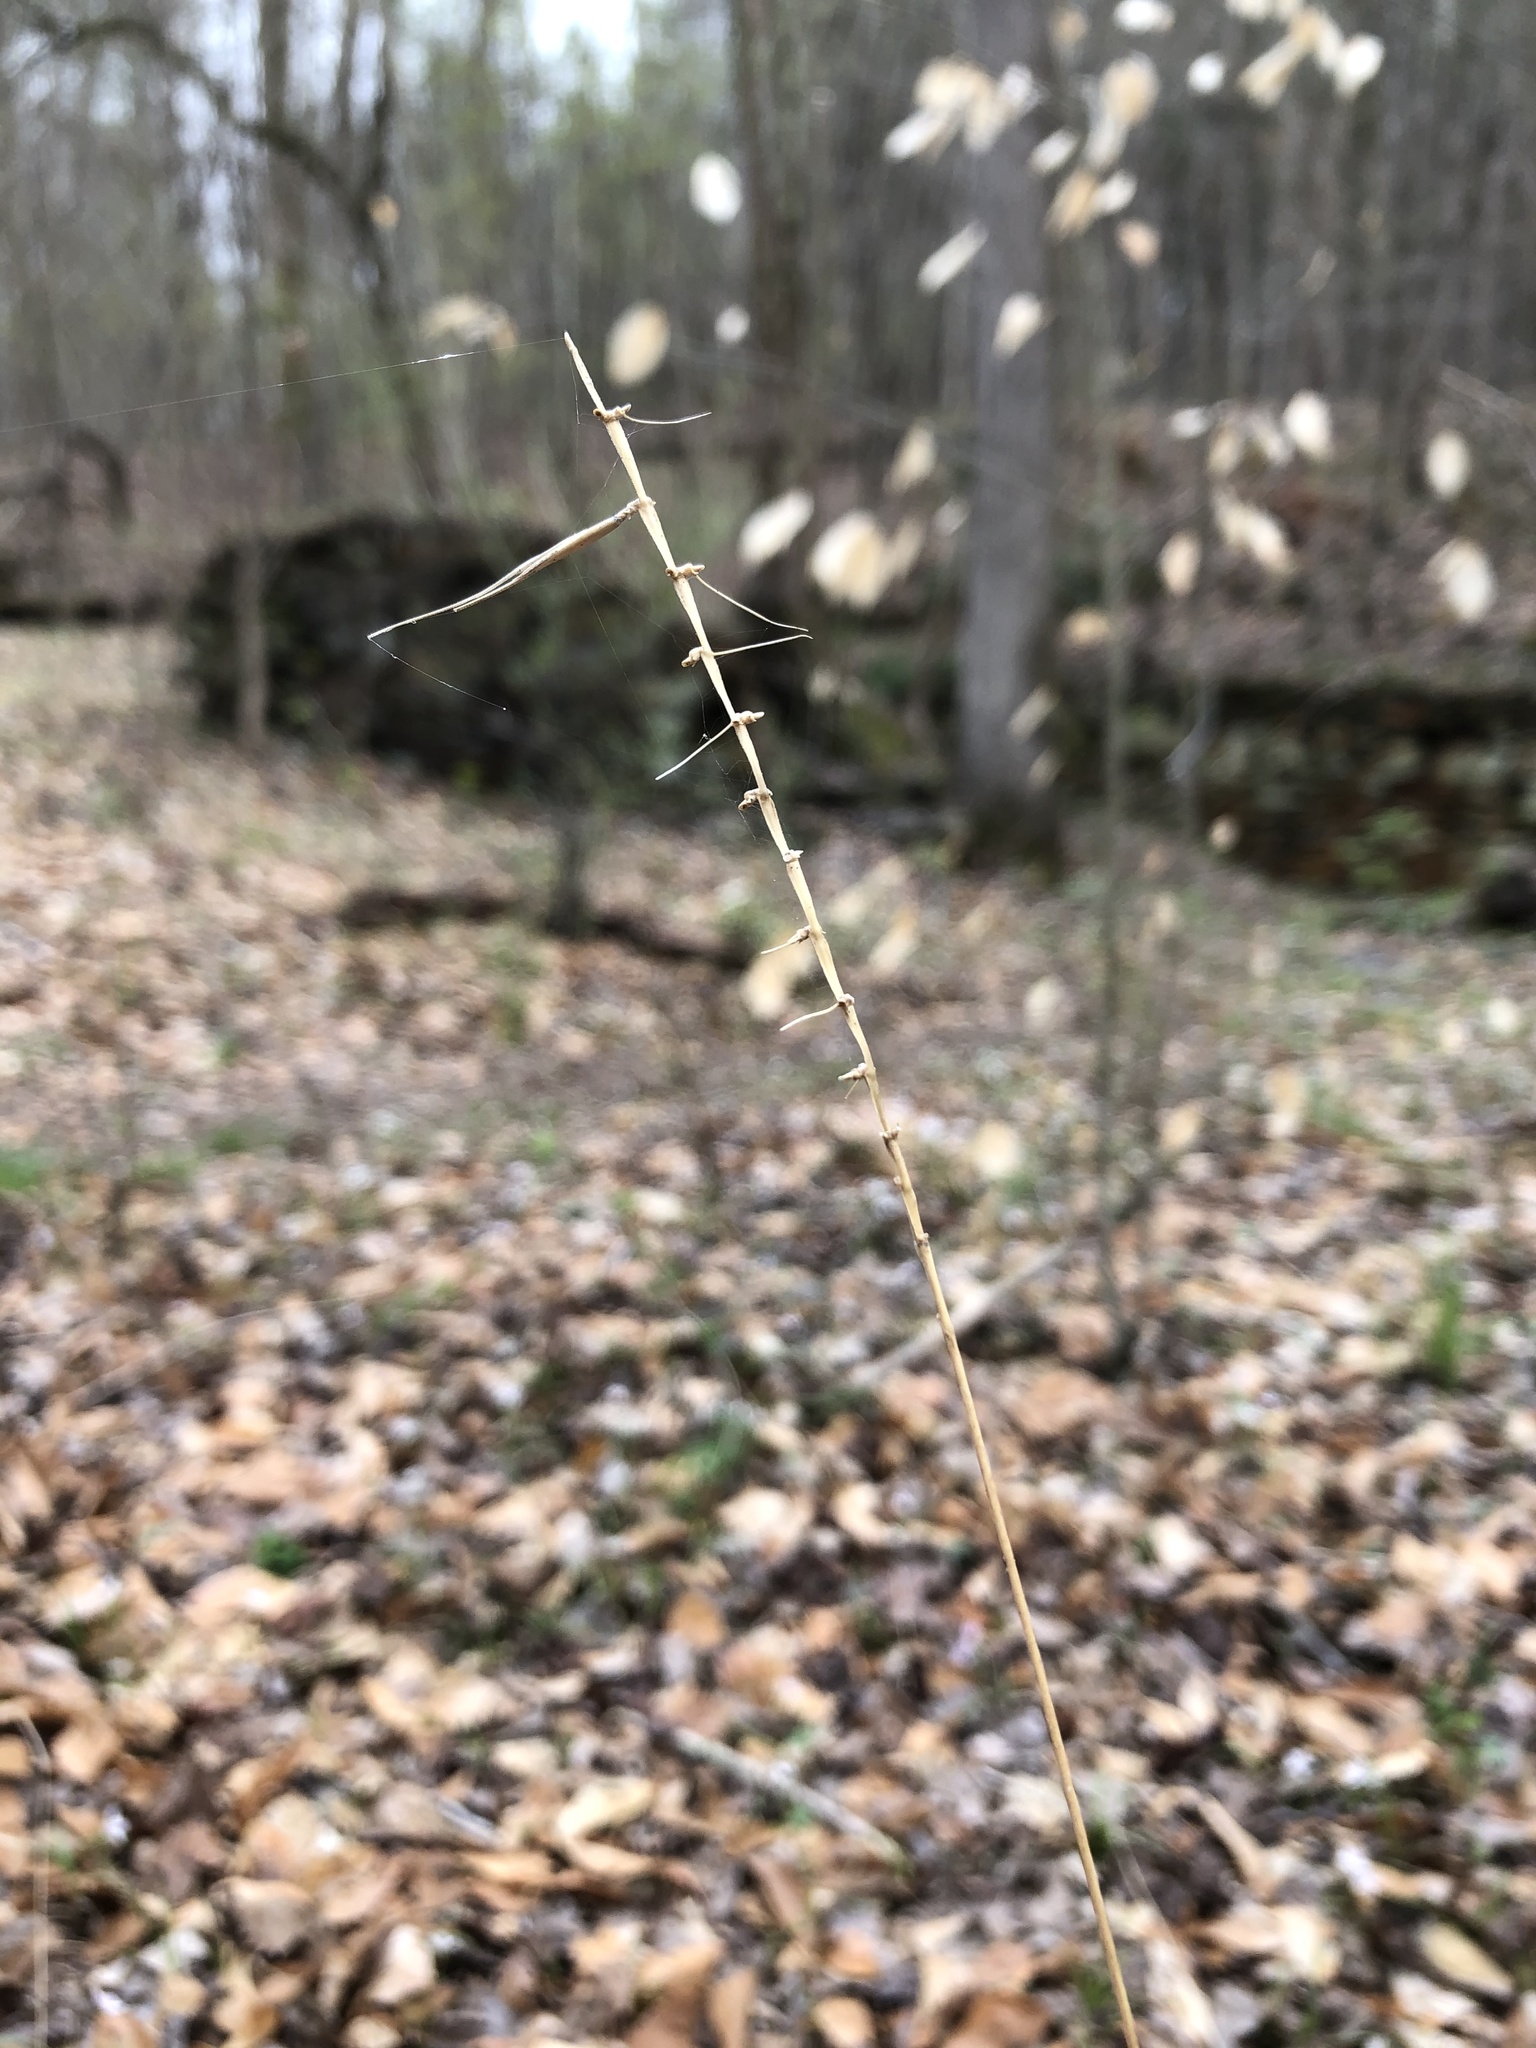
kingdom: Plantae
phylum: Tracheophyta
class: Liliopsida
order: Poales
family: Poaceae
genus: Elymus
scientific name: Elymus hystrix
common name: Bottlebrush grass
